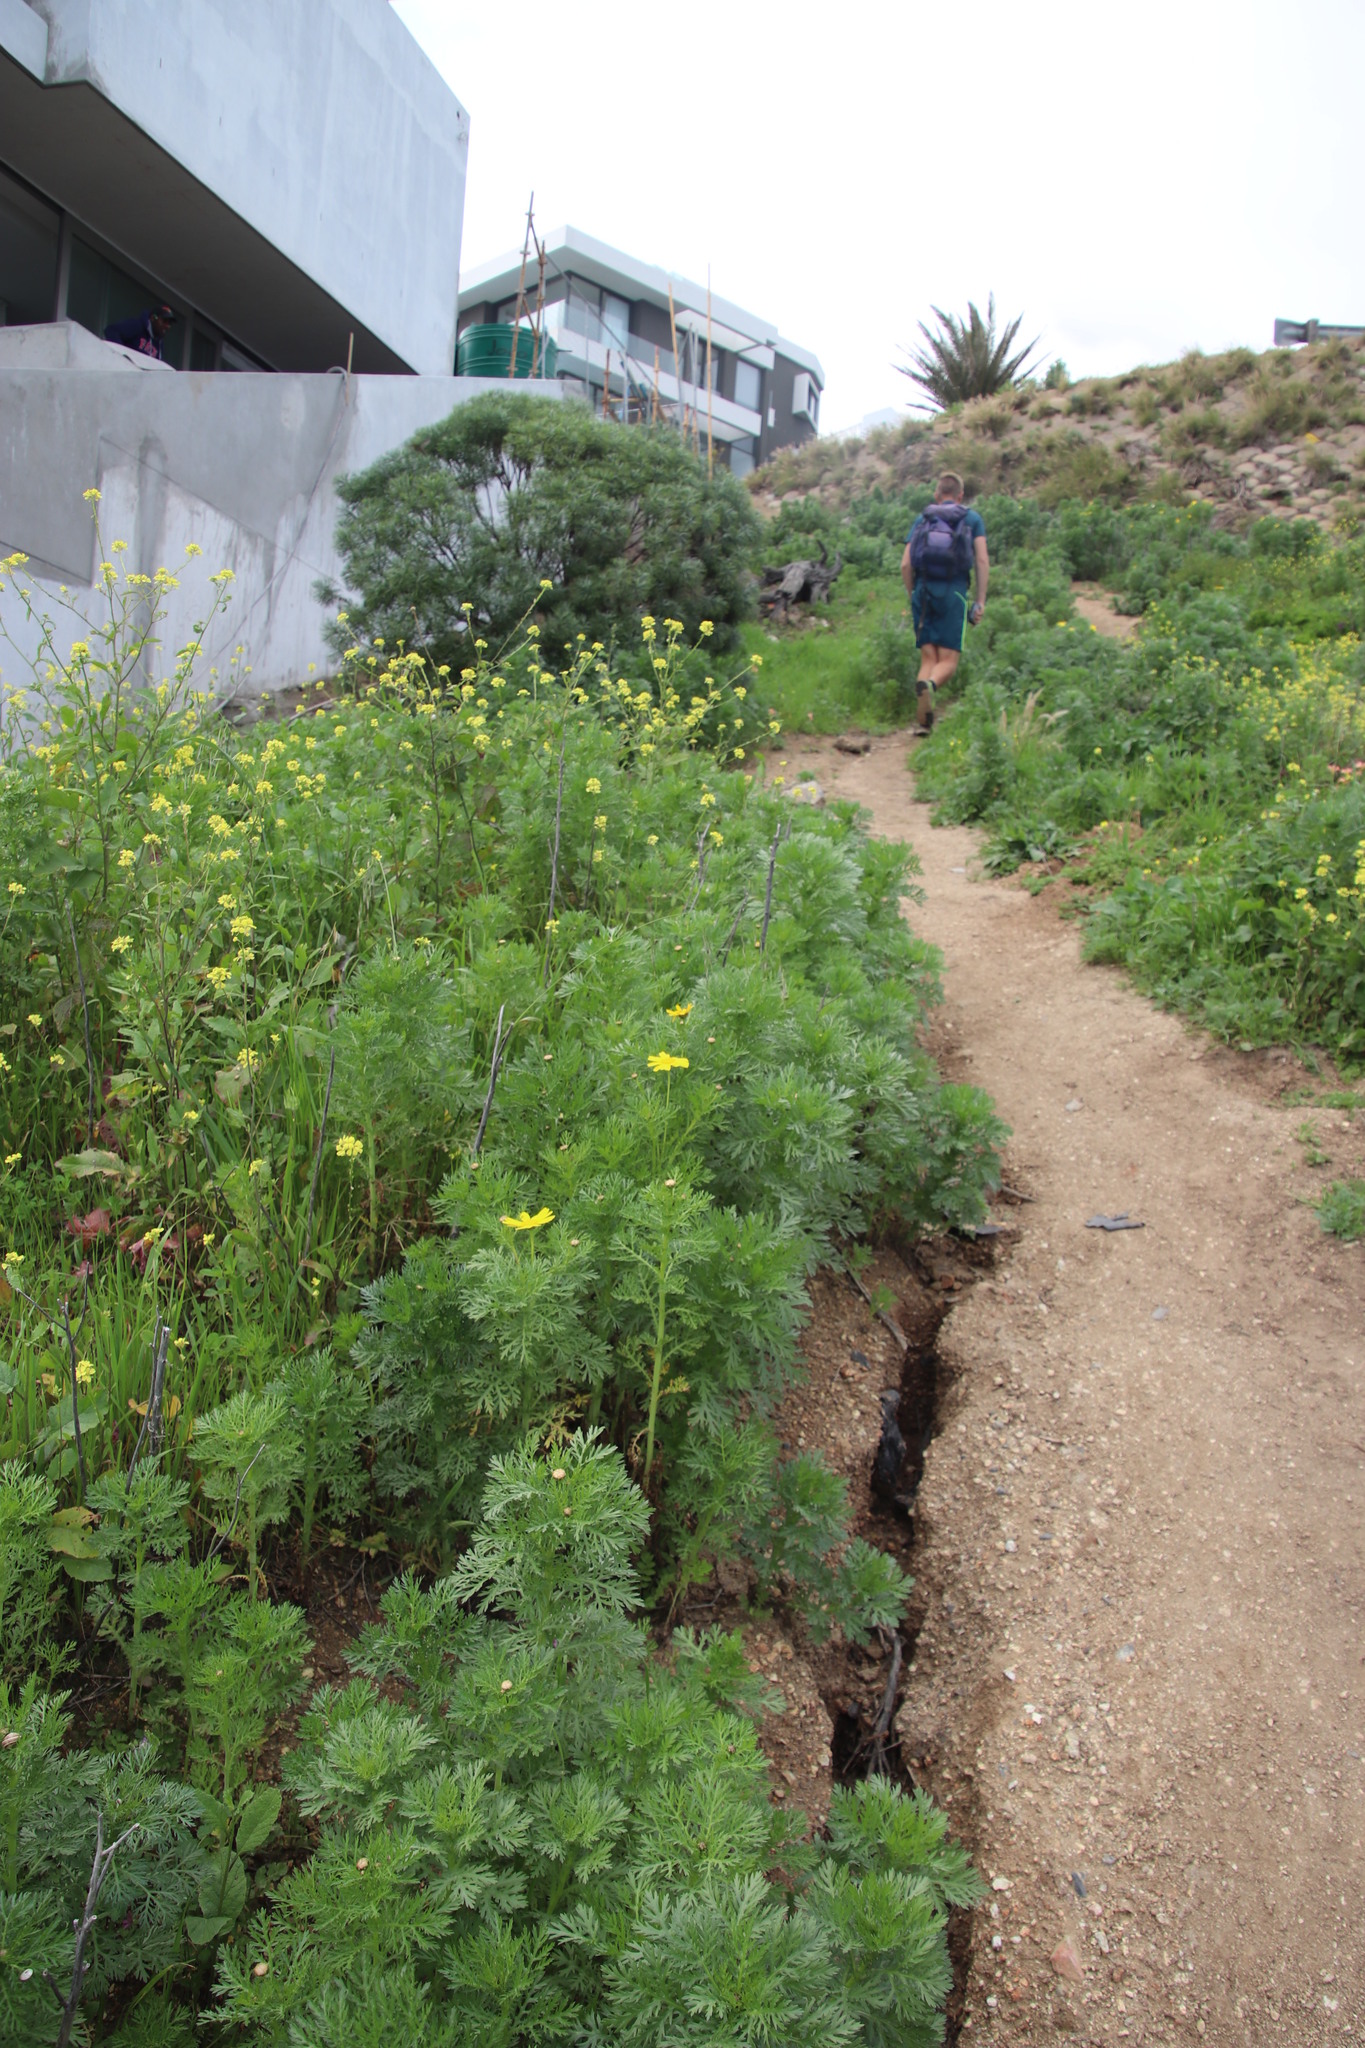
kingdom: Plantae
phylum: Tracheophyta
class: Magnoliopsida
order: Brassicales
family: Brassicaceae
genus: Rapistrum
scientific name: Rapistrum rugosum
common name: Annual bastardcabbage
